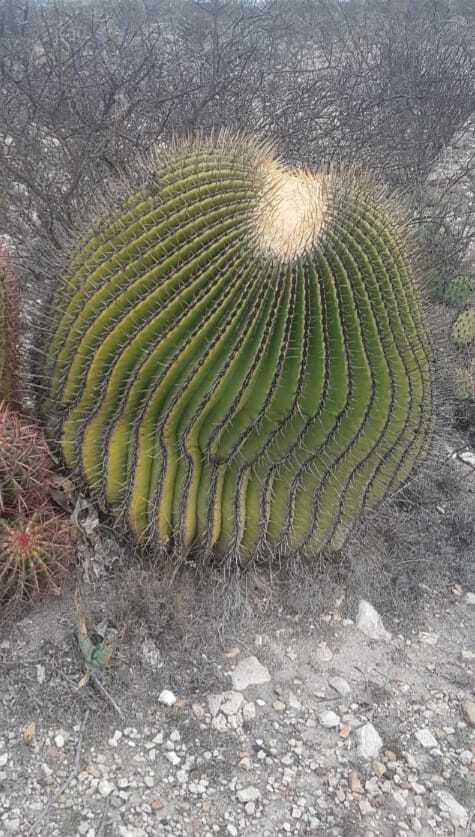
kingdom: Plantae
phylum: Tracheophyta
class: Magnoliopsida
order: Caryophyllales
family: Cactaceae
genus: Echinocactus
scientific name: Echinocactus platyacanthus
